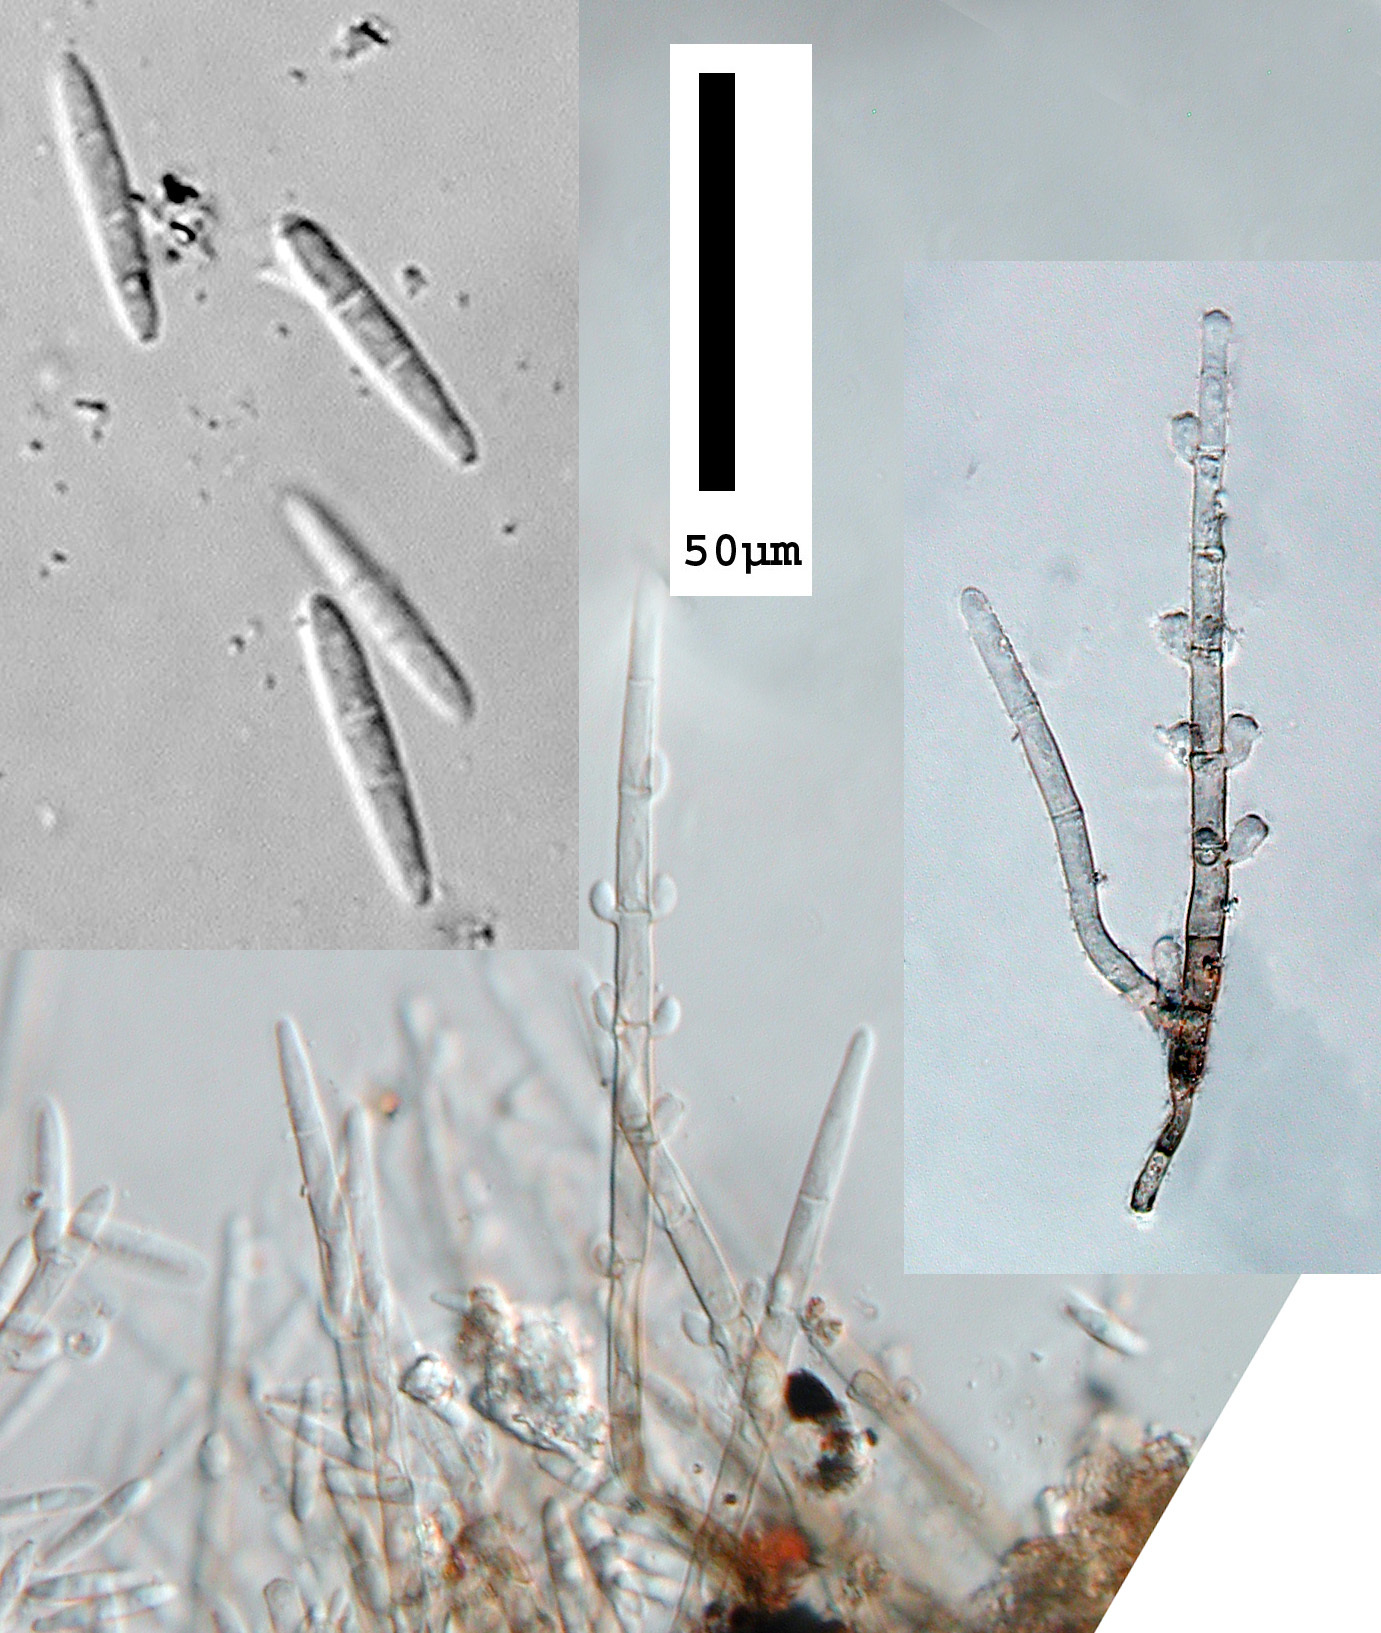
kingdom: Fungi
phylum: Ascomycota
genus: Spondylocladiopsis
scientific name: Spondylocladiopsis cupulicola
